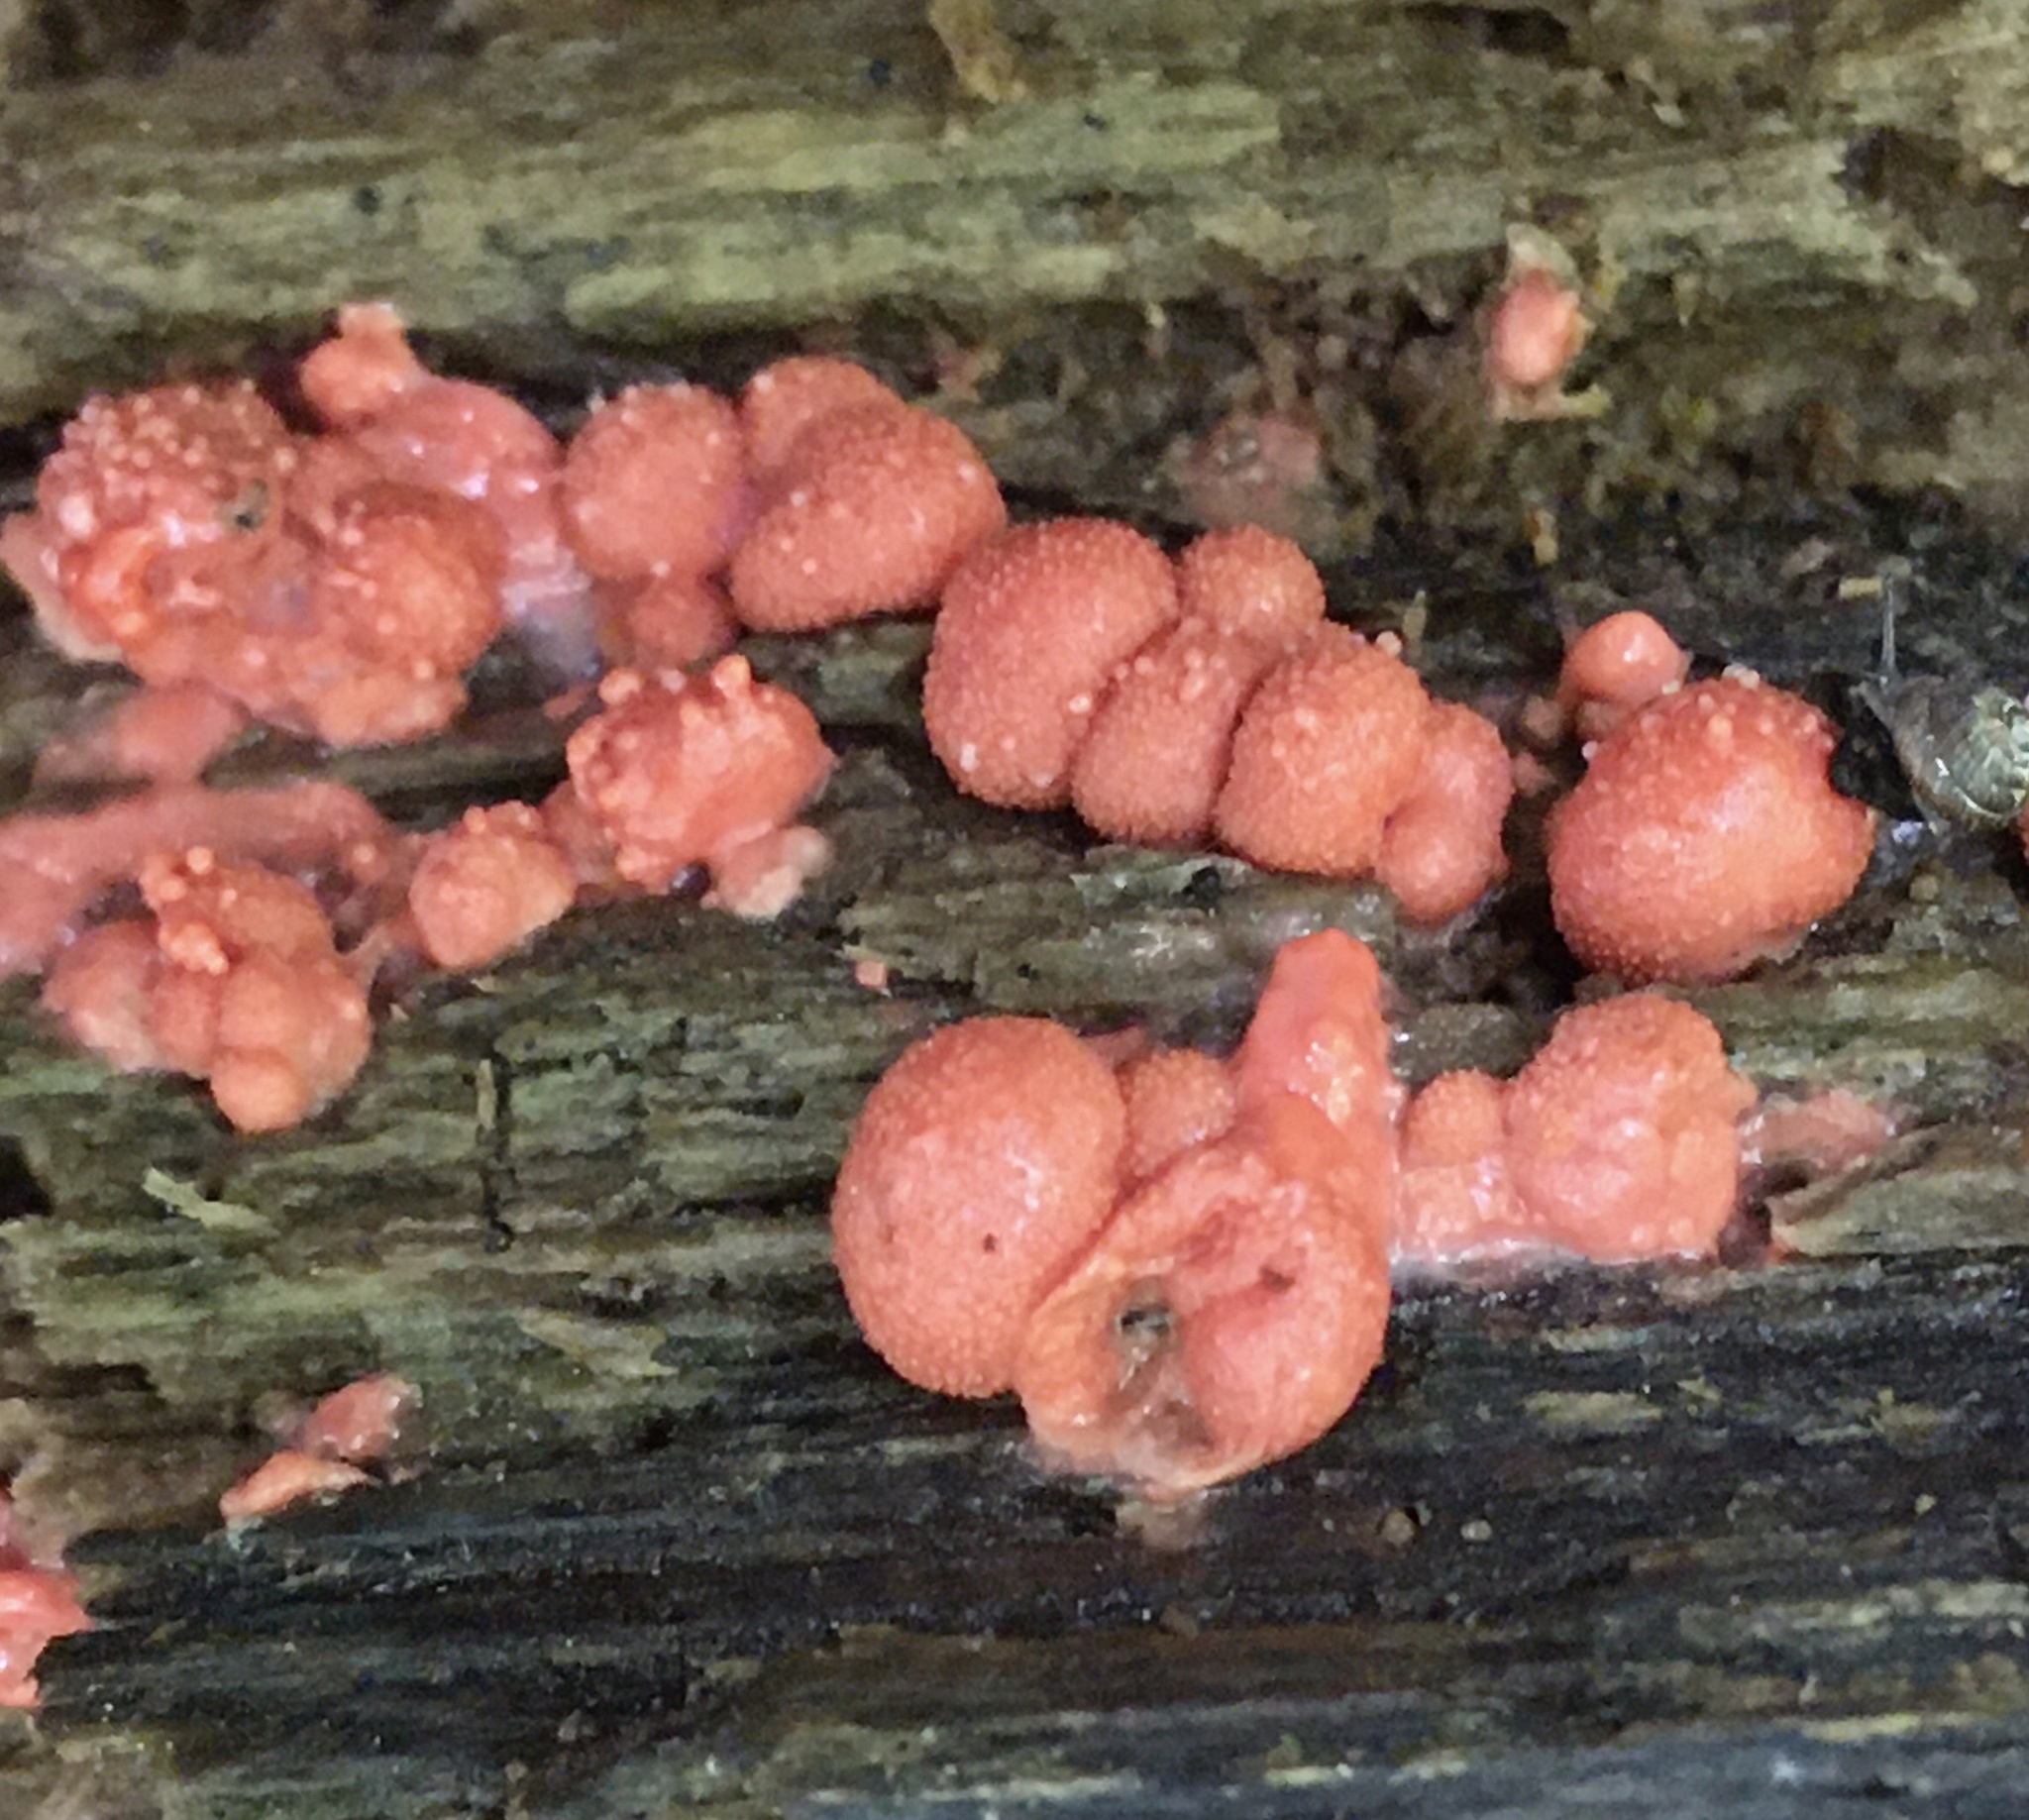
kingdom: Protozoa
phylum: Mycetozoa
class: Myxomycetes
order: Cribrariales
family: Tubiferaceae
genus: Lycogala
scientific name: Lycogala epidendrum
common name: Wolf's milk
